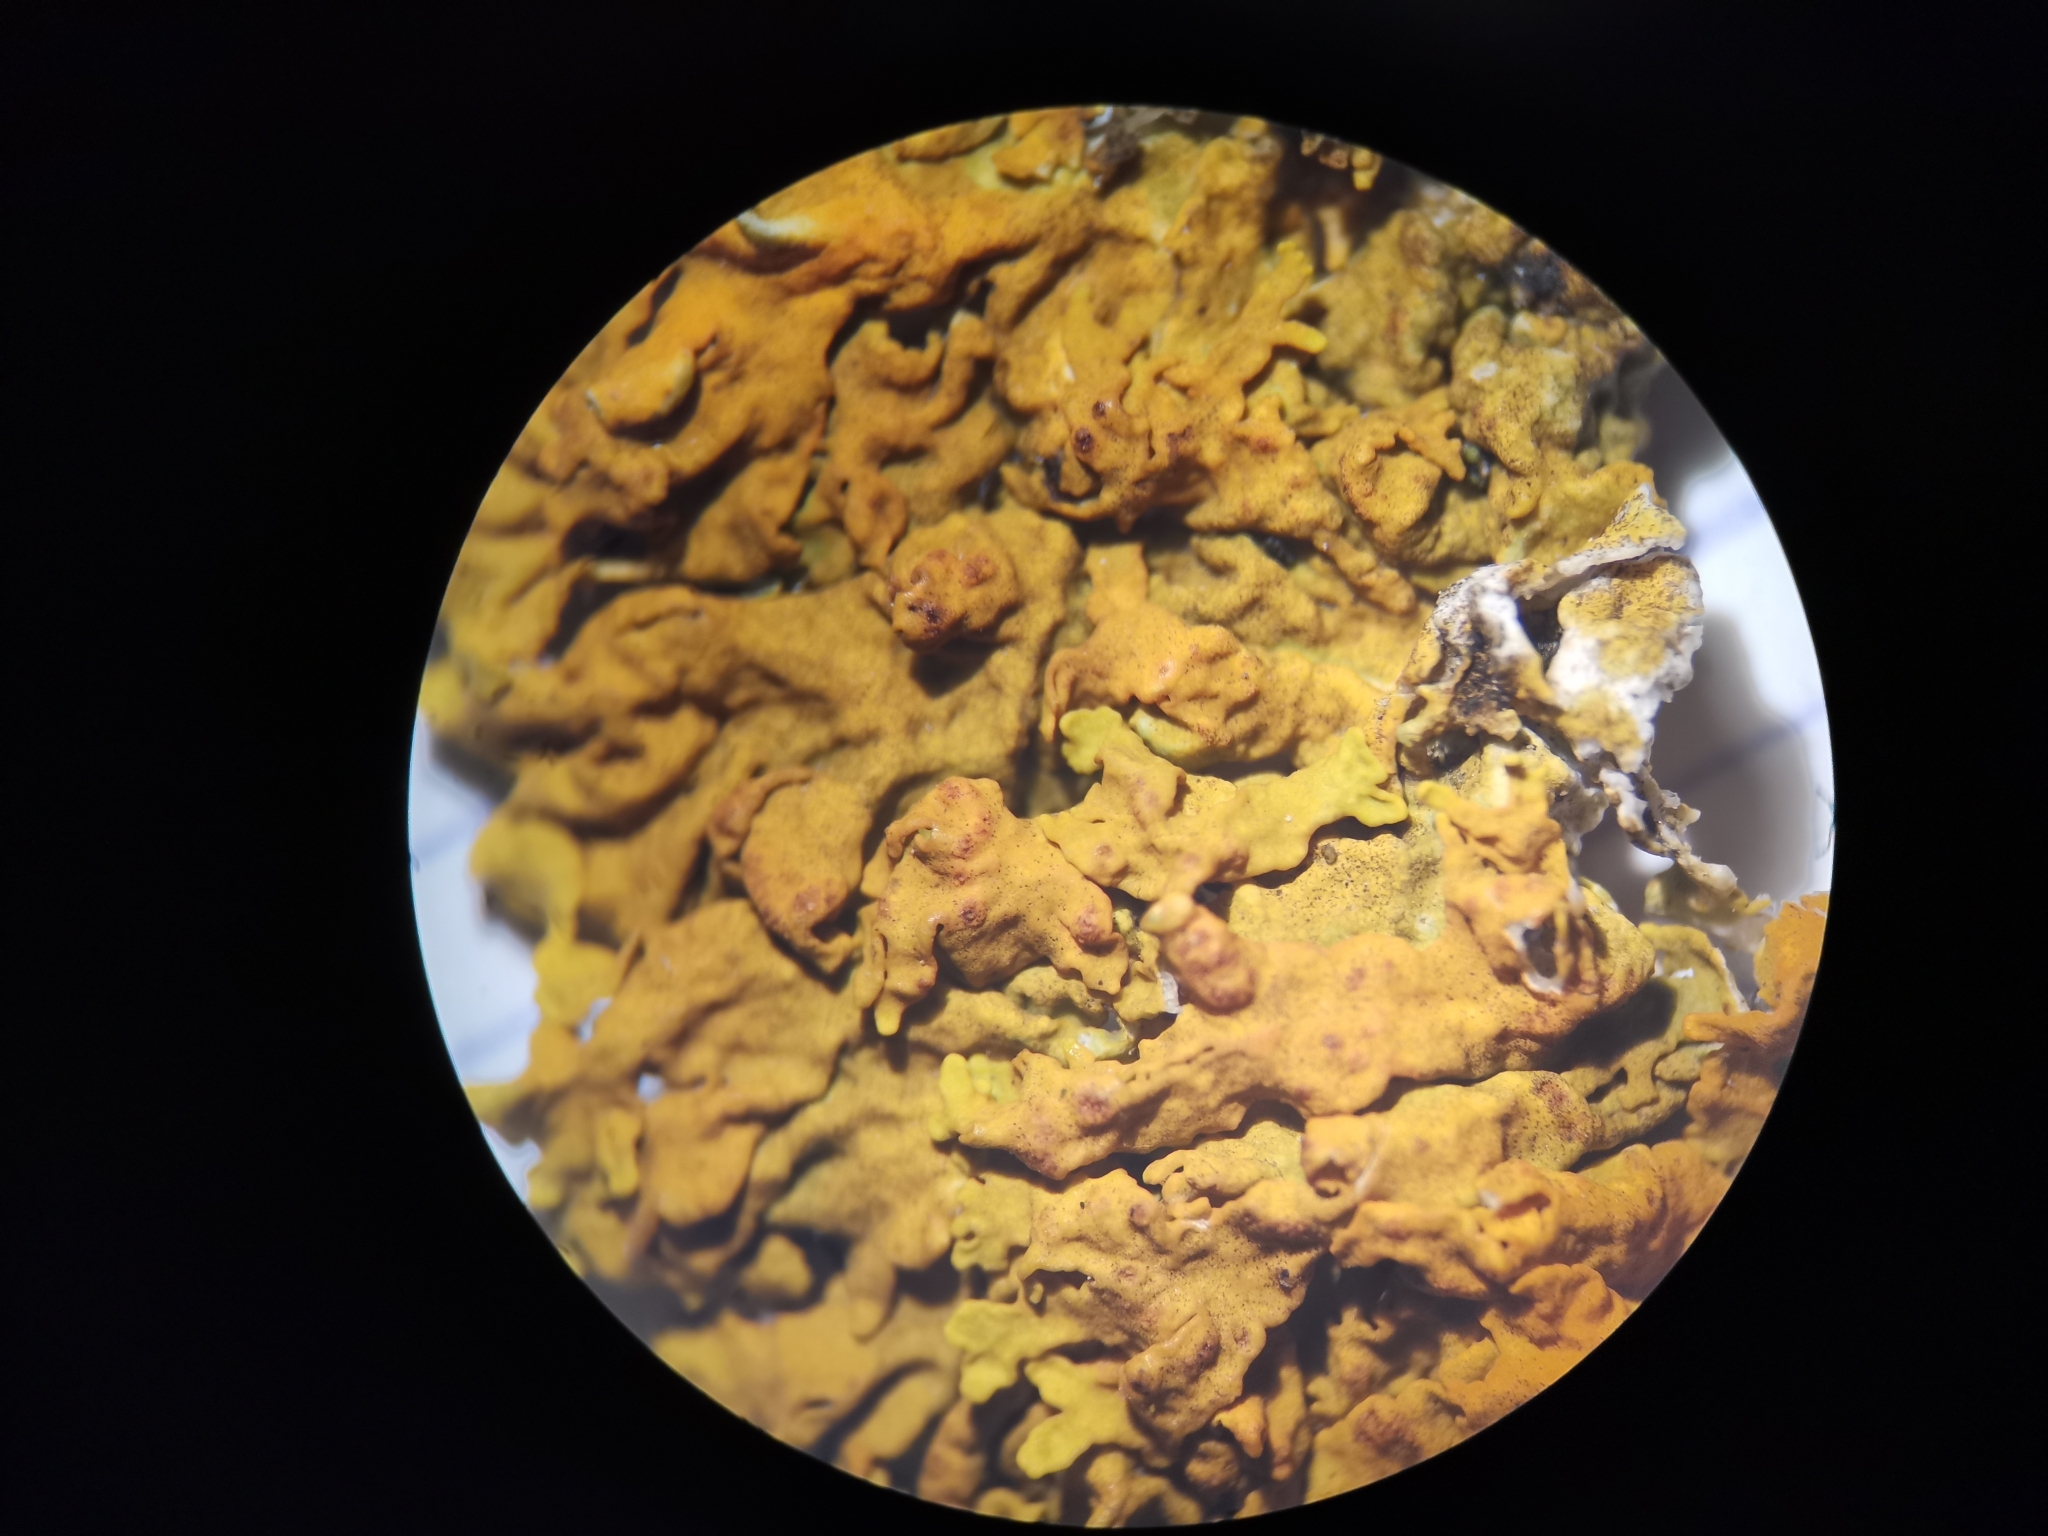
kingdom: Fungi
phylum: Ascomycota
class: Lecanoromycetes
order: Teloschistales
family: Teloschistaceae
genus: Xanthoria
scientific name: Xanthoria parietina
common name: Common orange lichen
